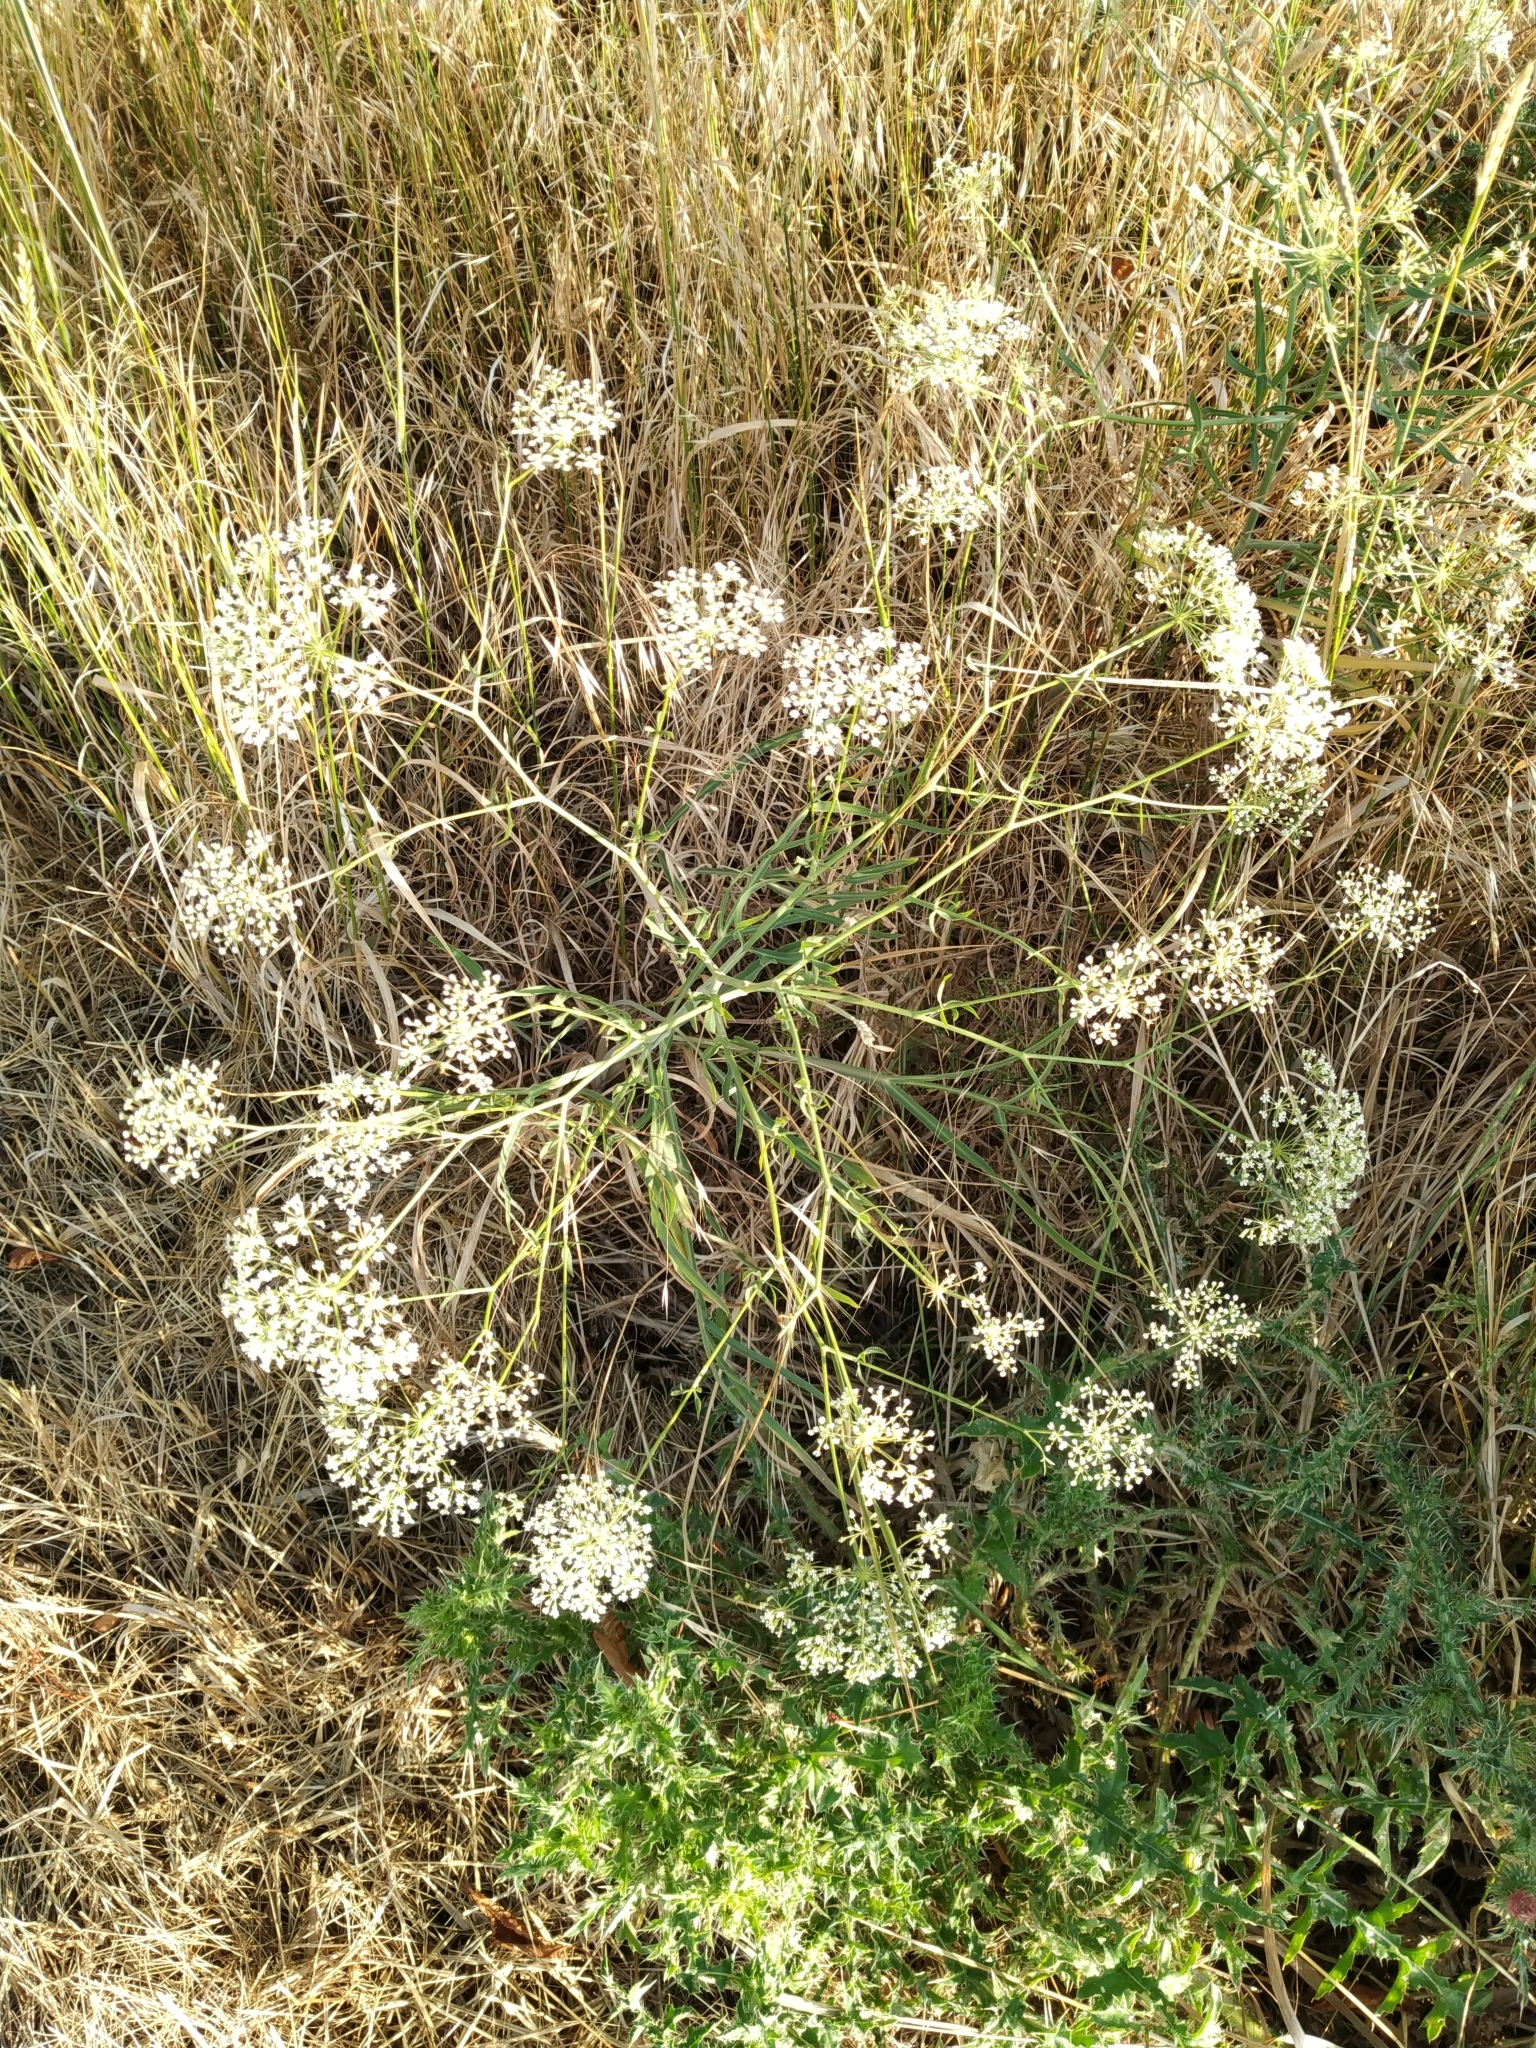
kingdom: Plantae
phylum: Tracheophyta
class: Magnoliopsida
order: Apiales
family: Apiaceae
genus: Falcaria
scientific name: Falcaria vulgaris
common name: Longleaf
